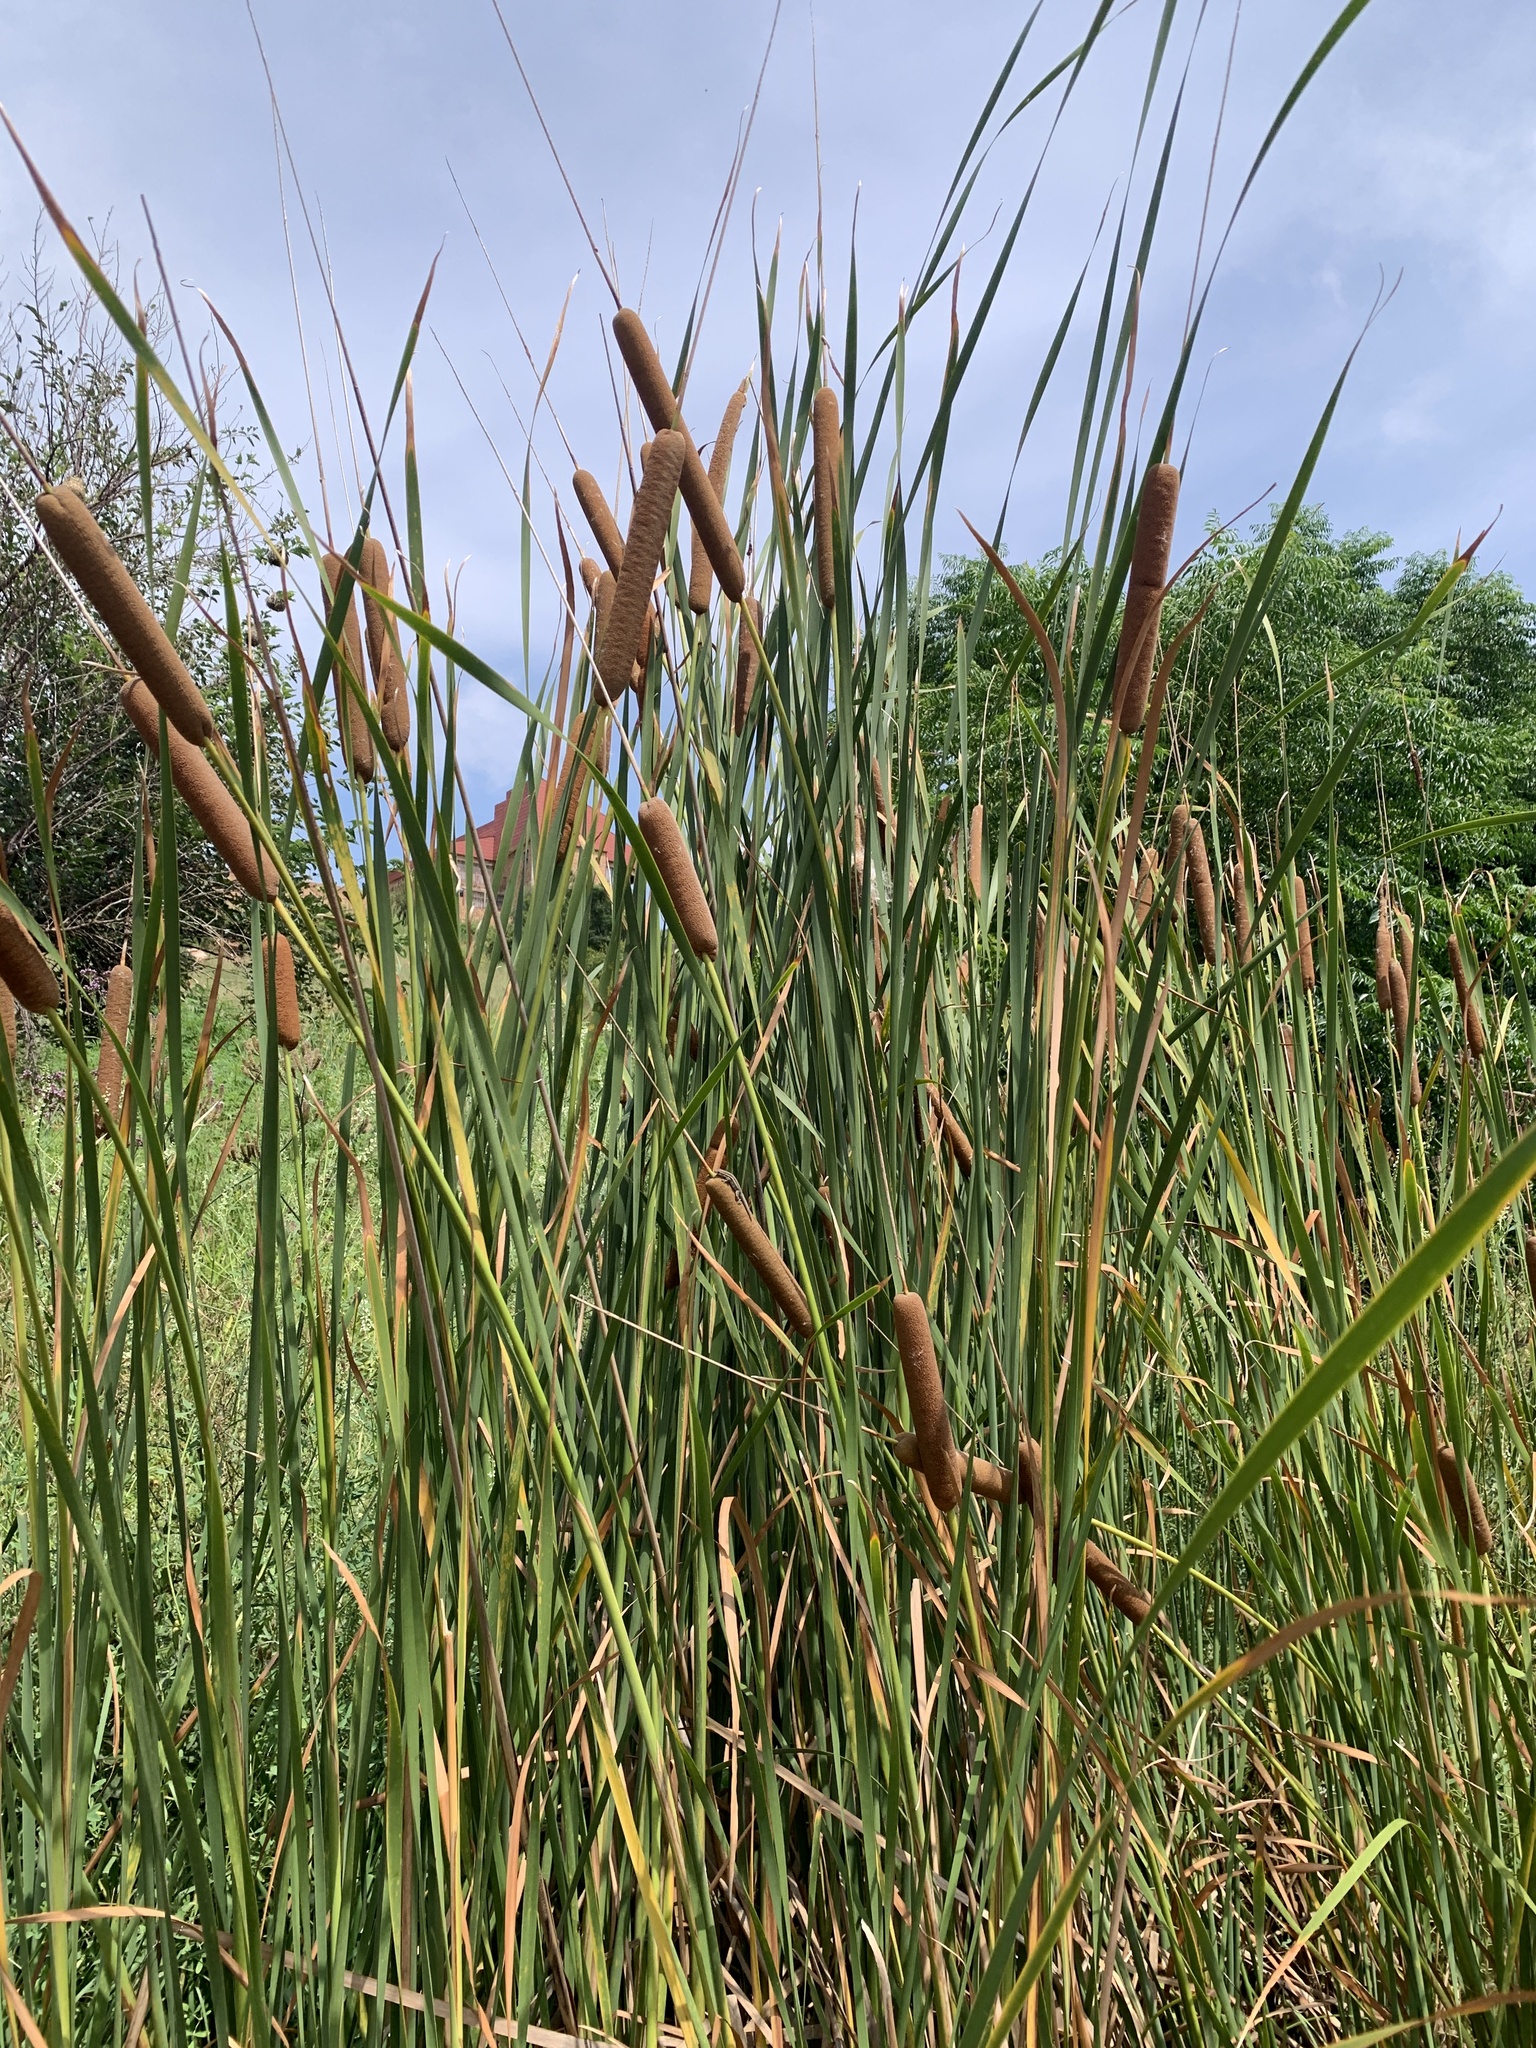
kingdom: Plantae
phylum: Tracheophyta
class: Liliopsida
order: Poales
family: Typhaceae
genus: Typha
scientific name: Typha capensis
